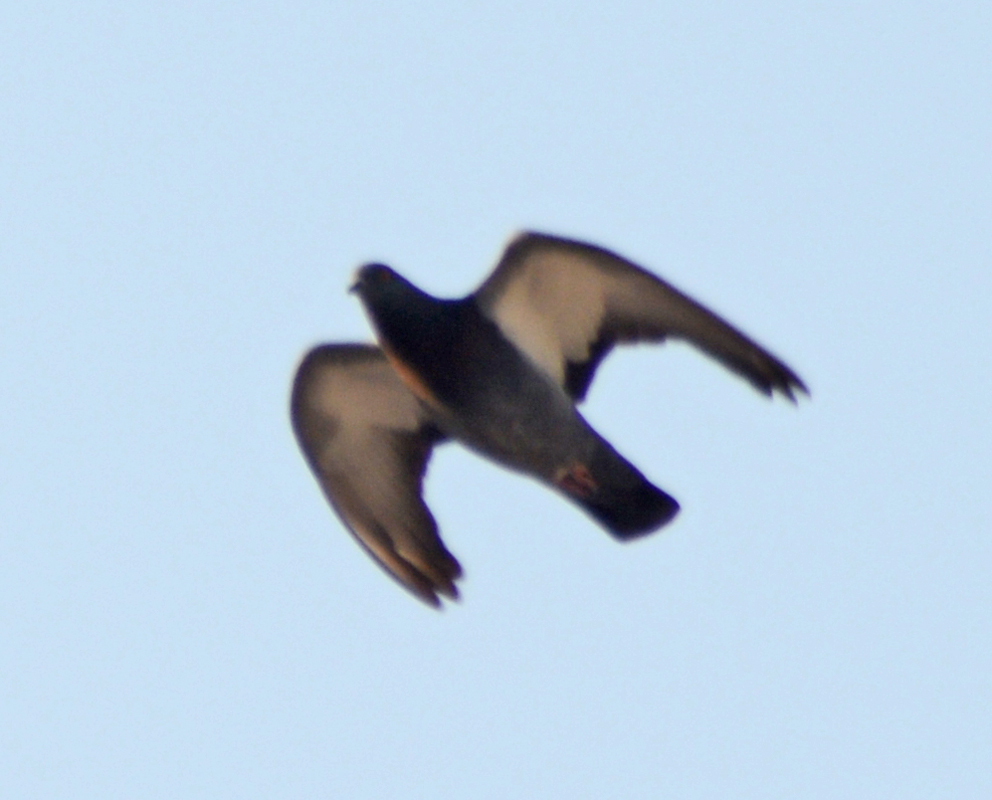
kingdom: Animalia
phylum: Chordata
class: Aves
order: Columbiformes
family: Columbidae
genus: Columba
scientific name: Columba livia
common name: Rock pigeon
